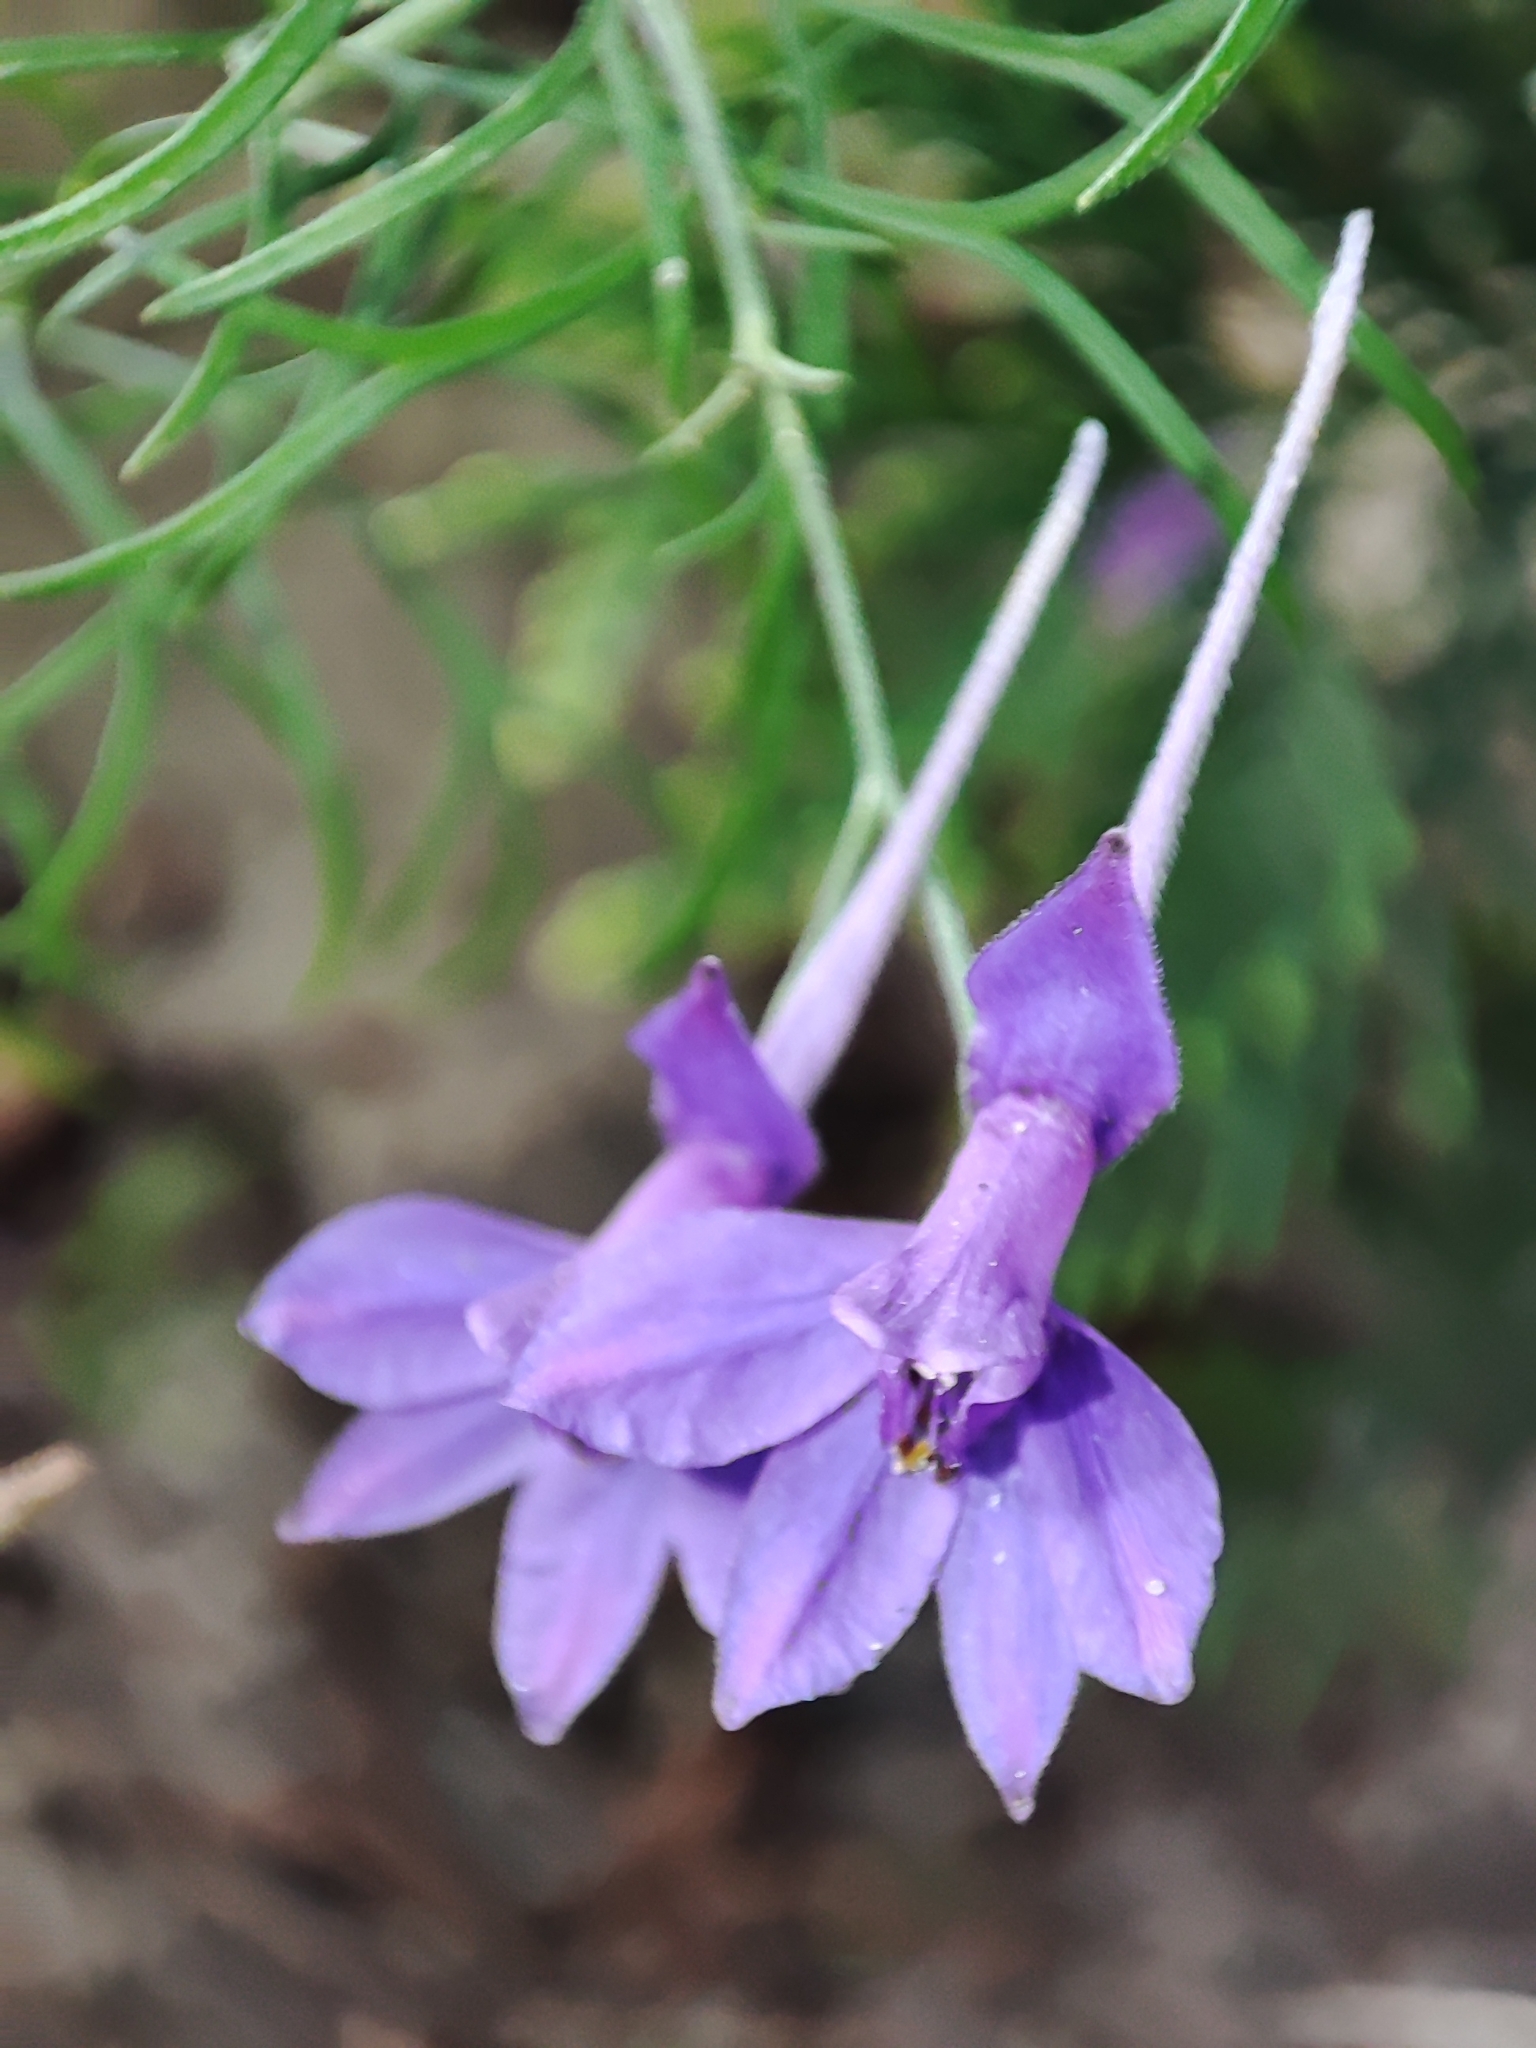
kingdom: Plantae
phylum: Tracheophyta
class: Magnoliopsida
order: Ranunculales
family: Ranunculaceae
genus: Delphinium
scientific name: Delphinium consolida
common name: Branching larkspur
